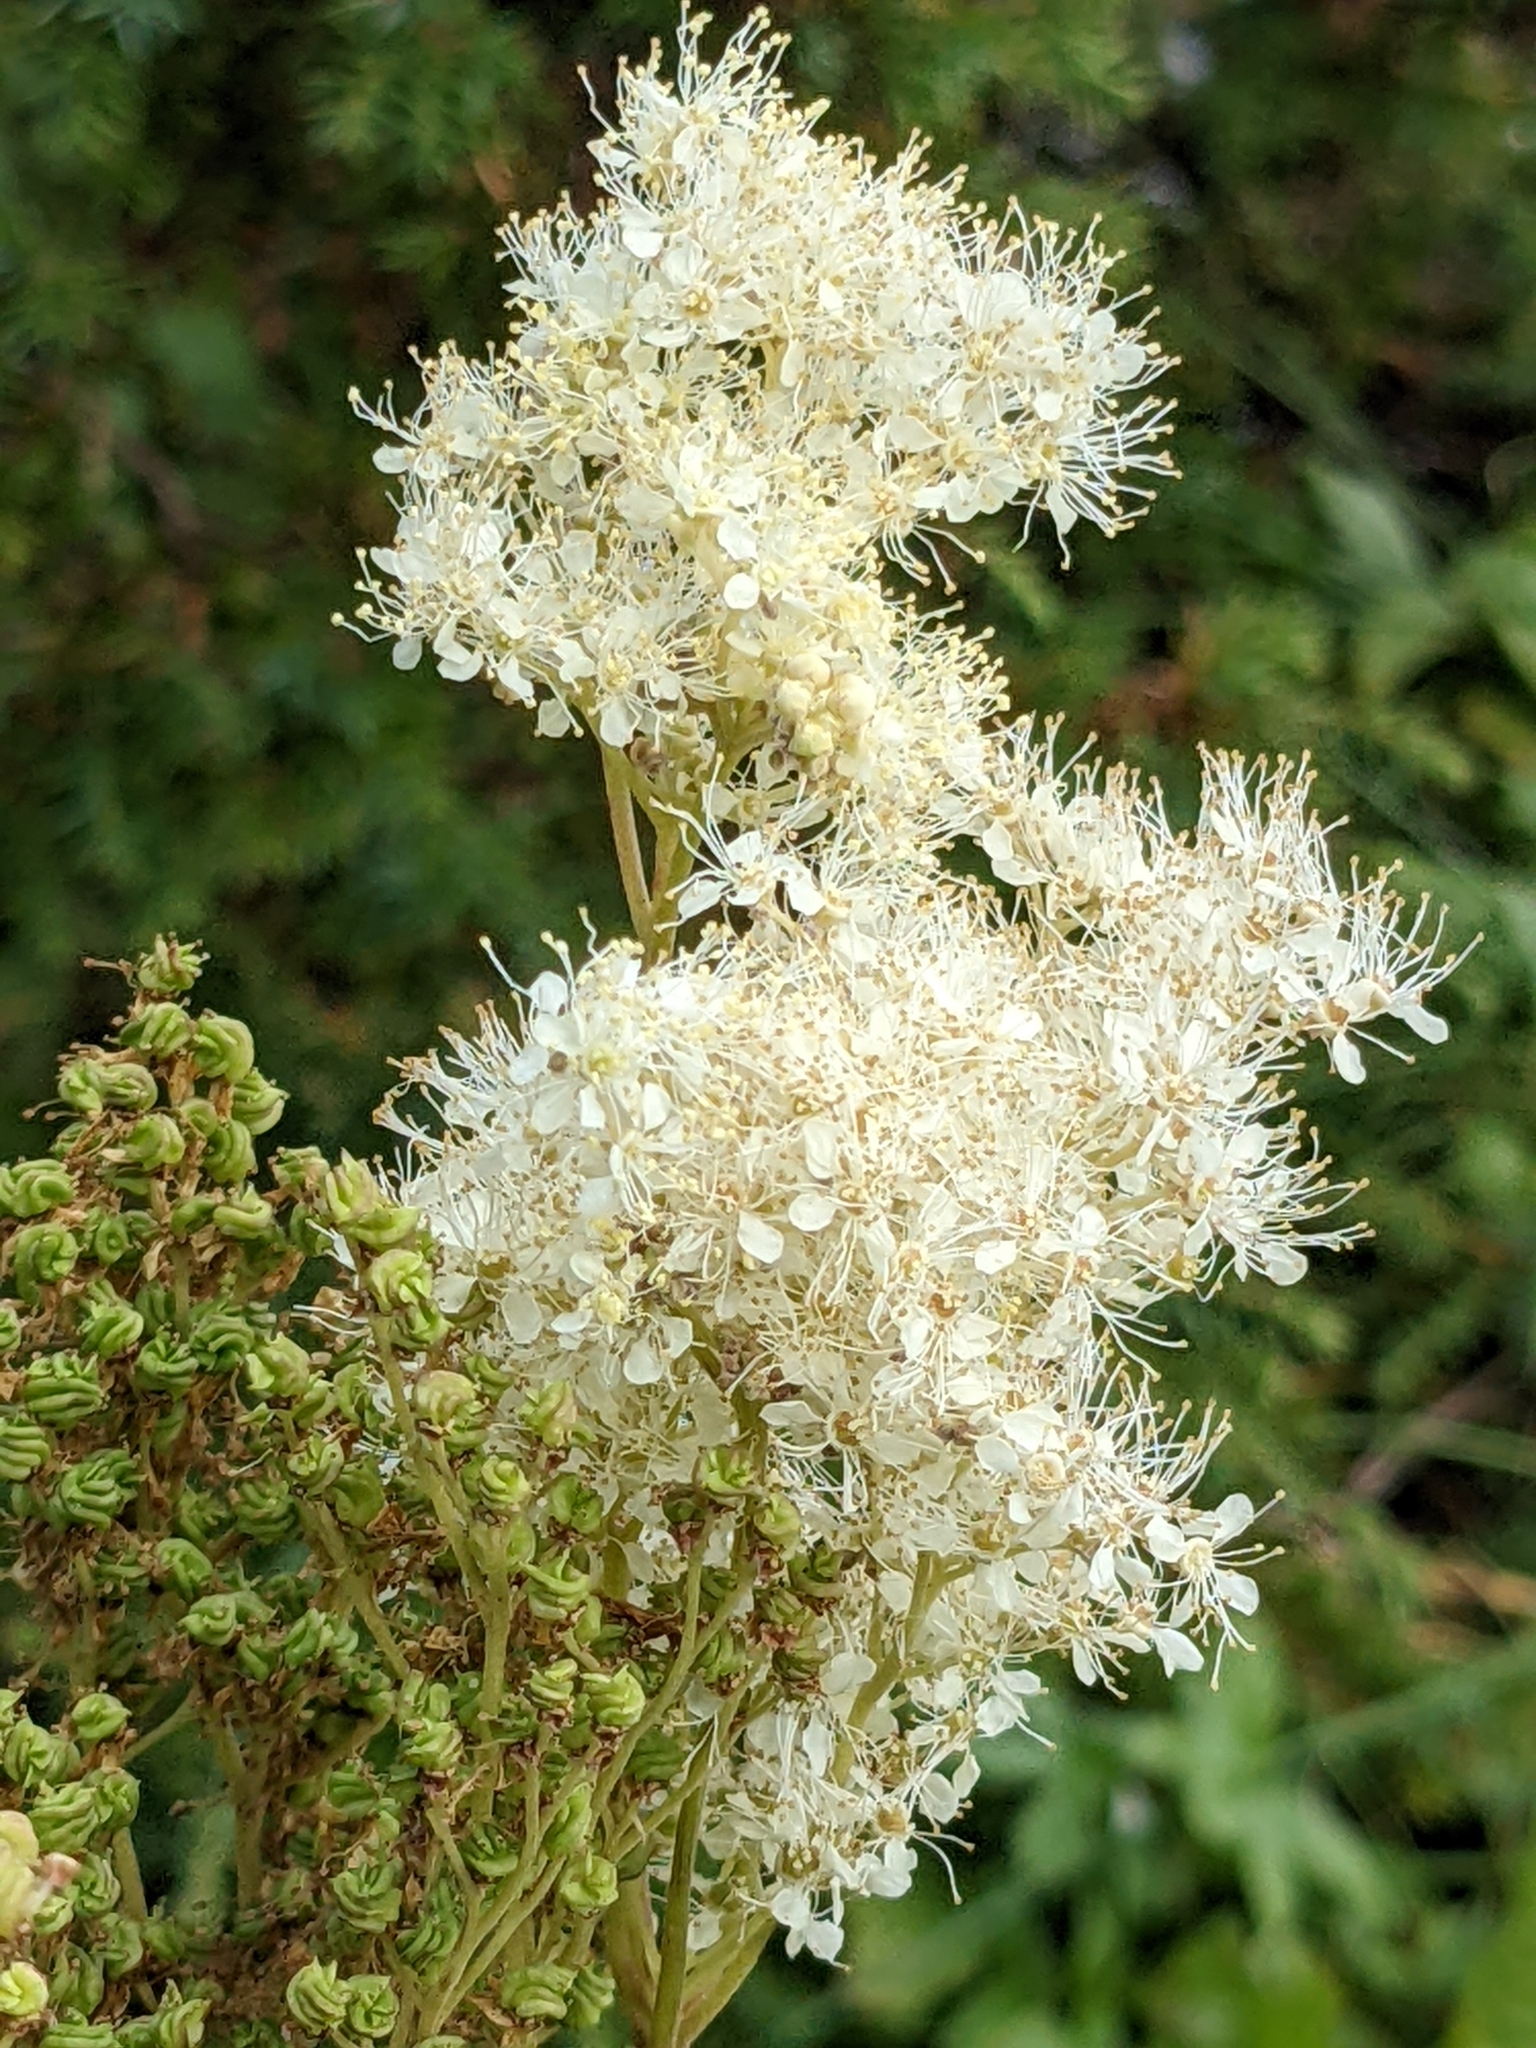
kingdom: Plantae
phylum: Tracheophyta
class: Magnoliopsida
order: Rosales
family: Rosaceae
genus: Filipendula
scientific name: Filipendula ulmaria
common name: Meadowsweet
